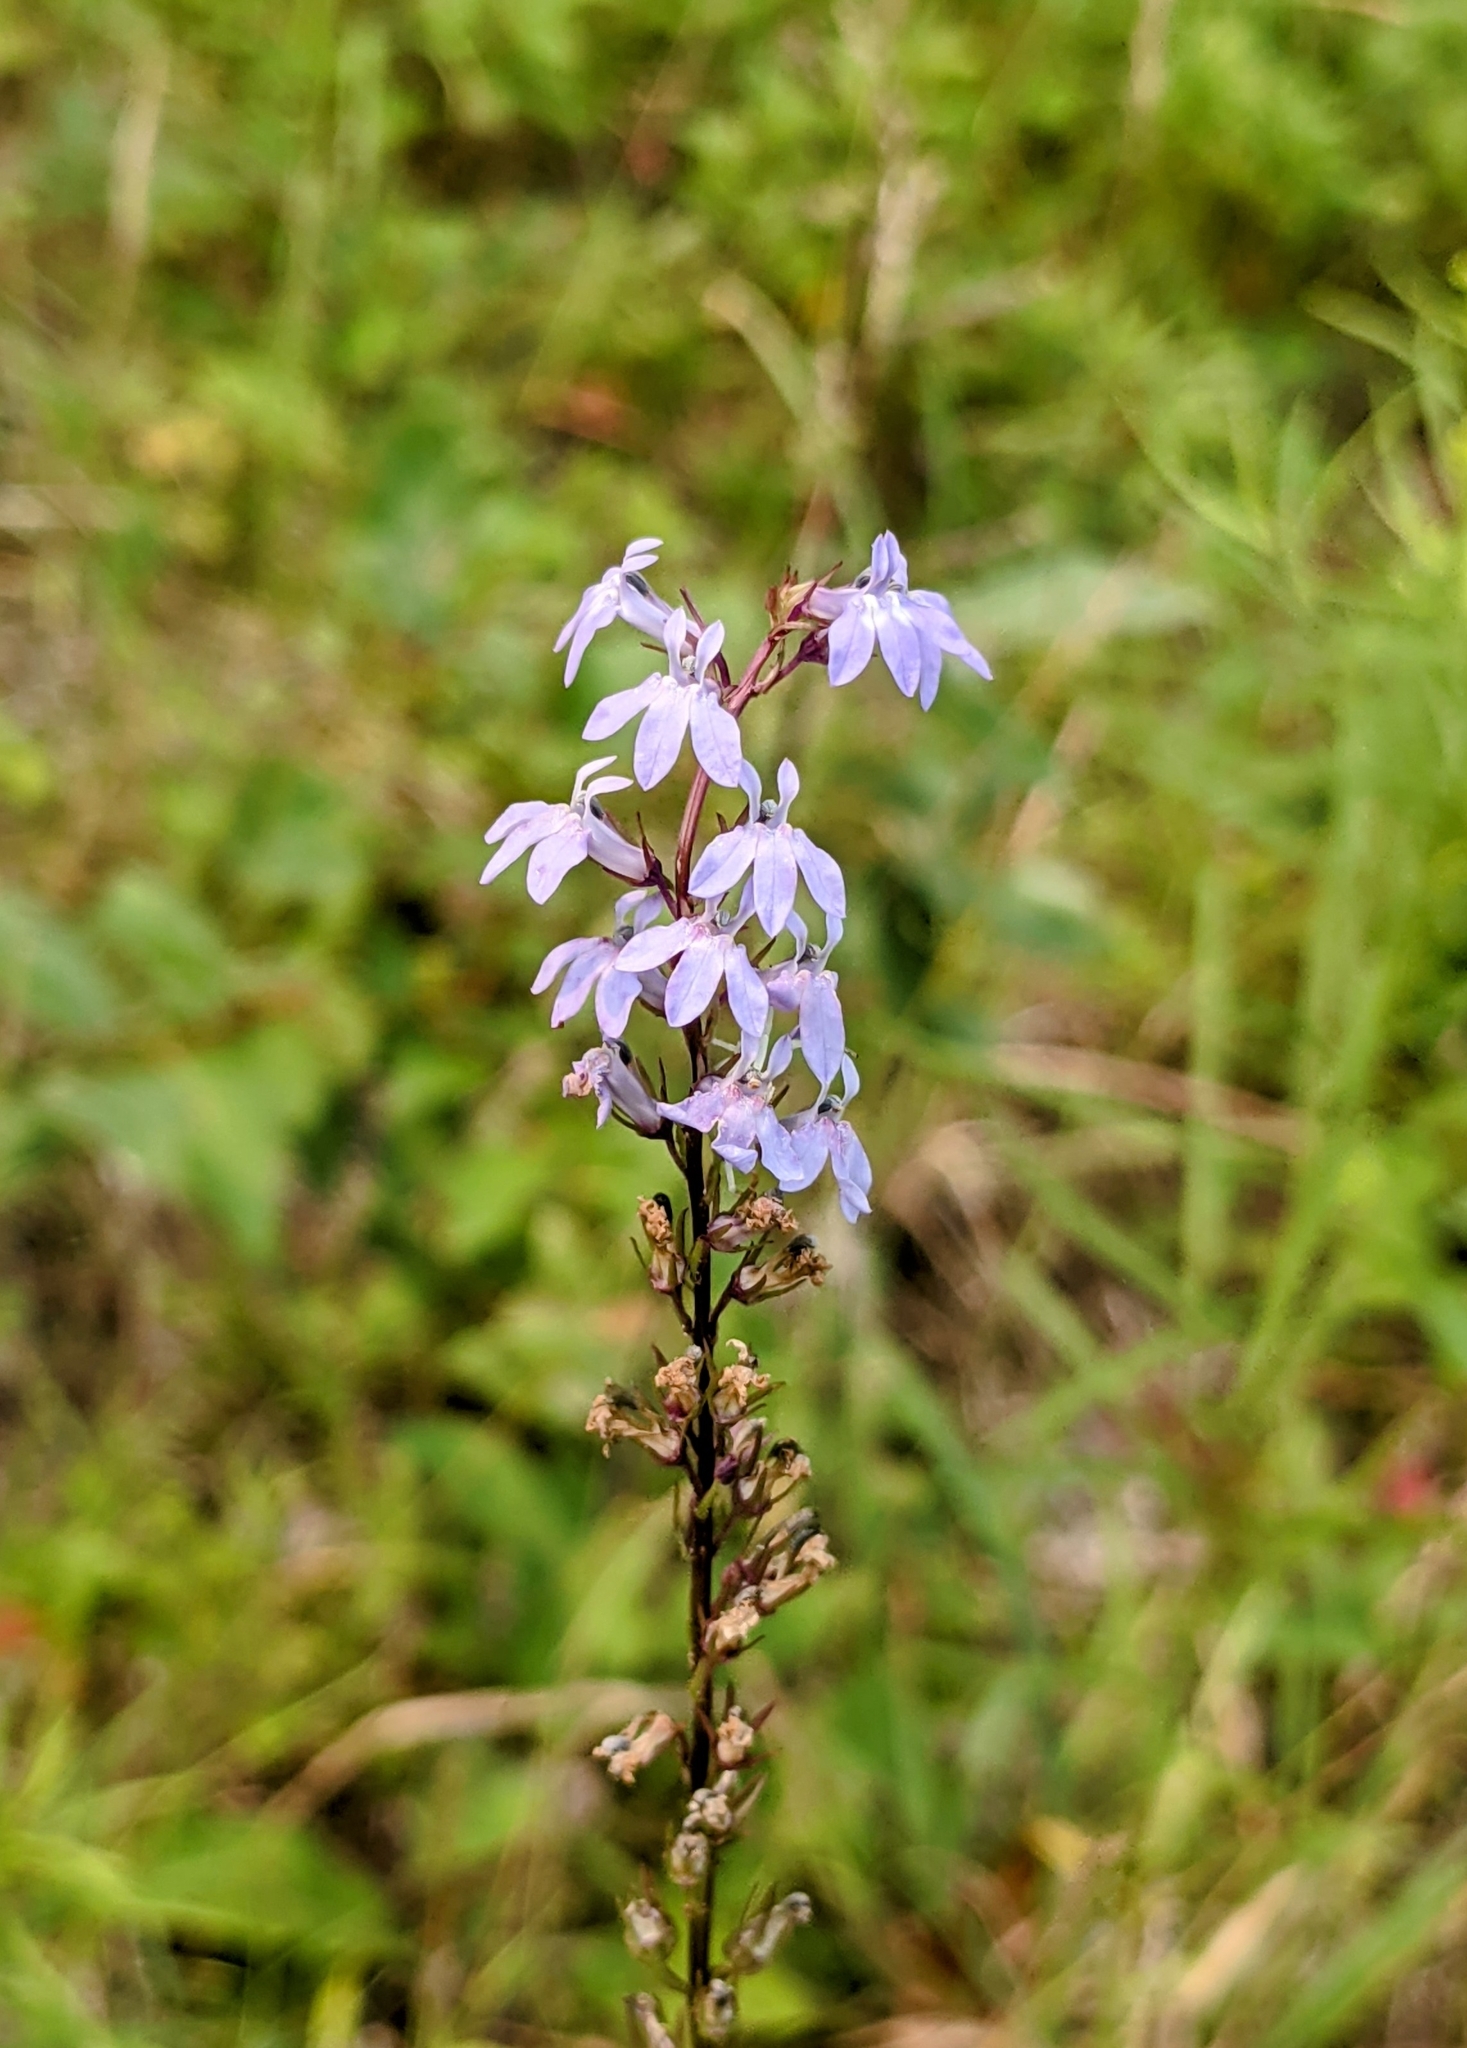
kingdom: Plantae
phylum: Tracheophyta
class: Magnoliopsida
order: Asterales
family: Campanulaceae
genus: Lobelia
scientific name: Lobelia spicata
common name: Pale-spike lobelia
